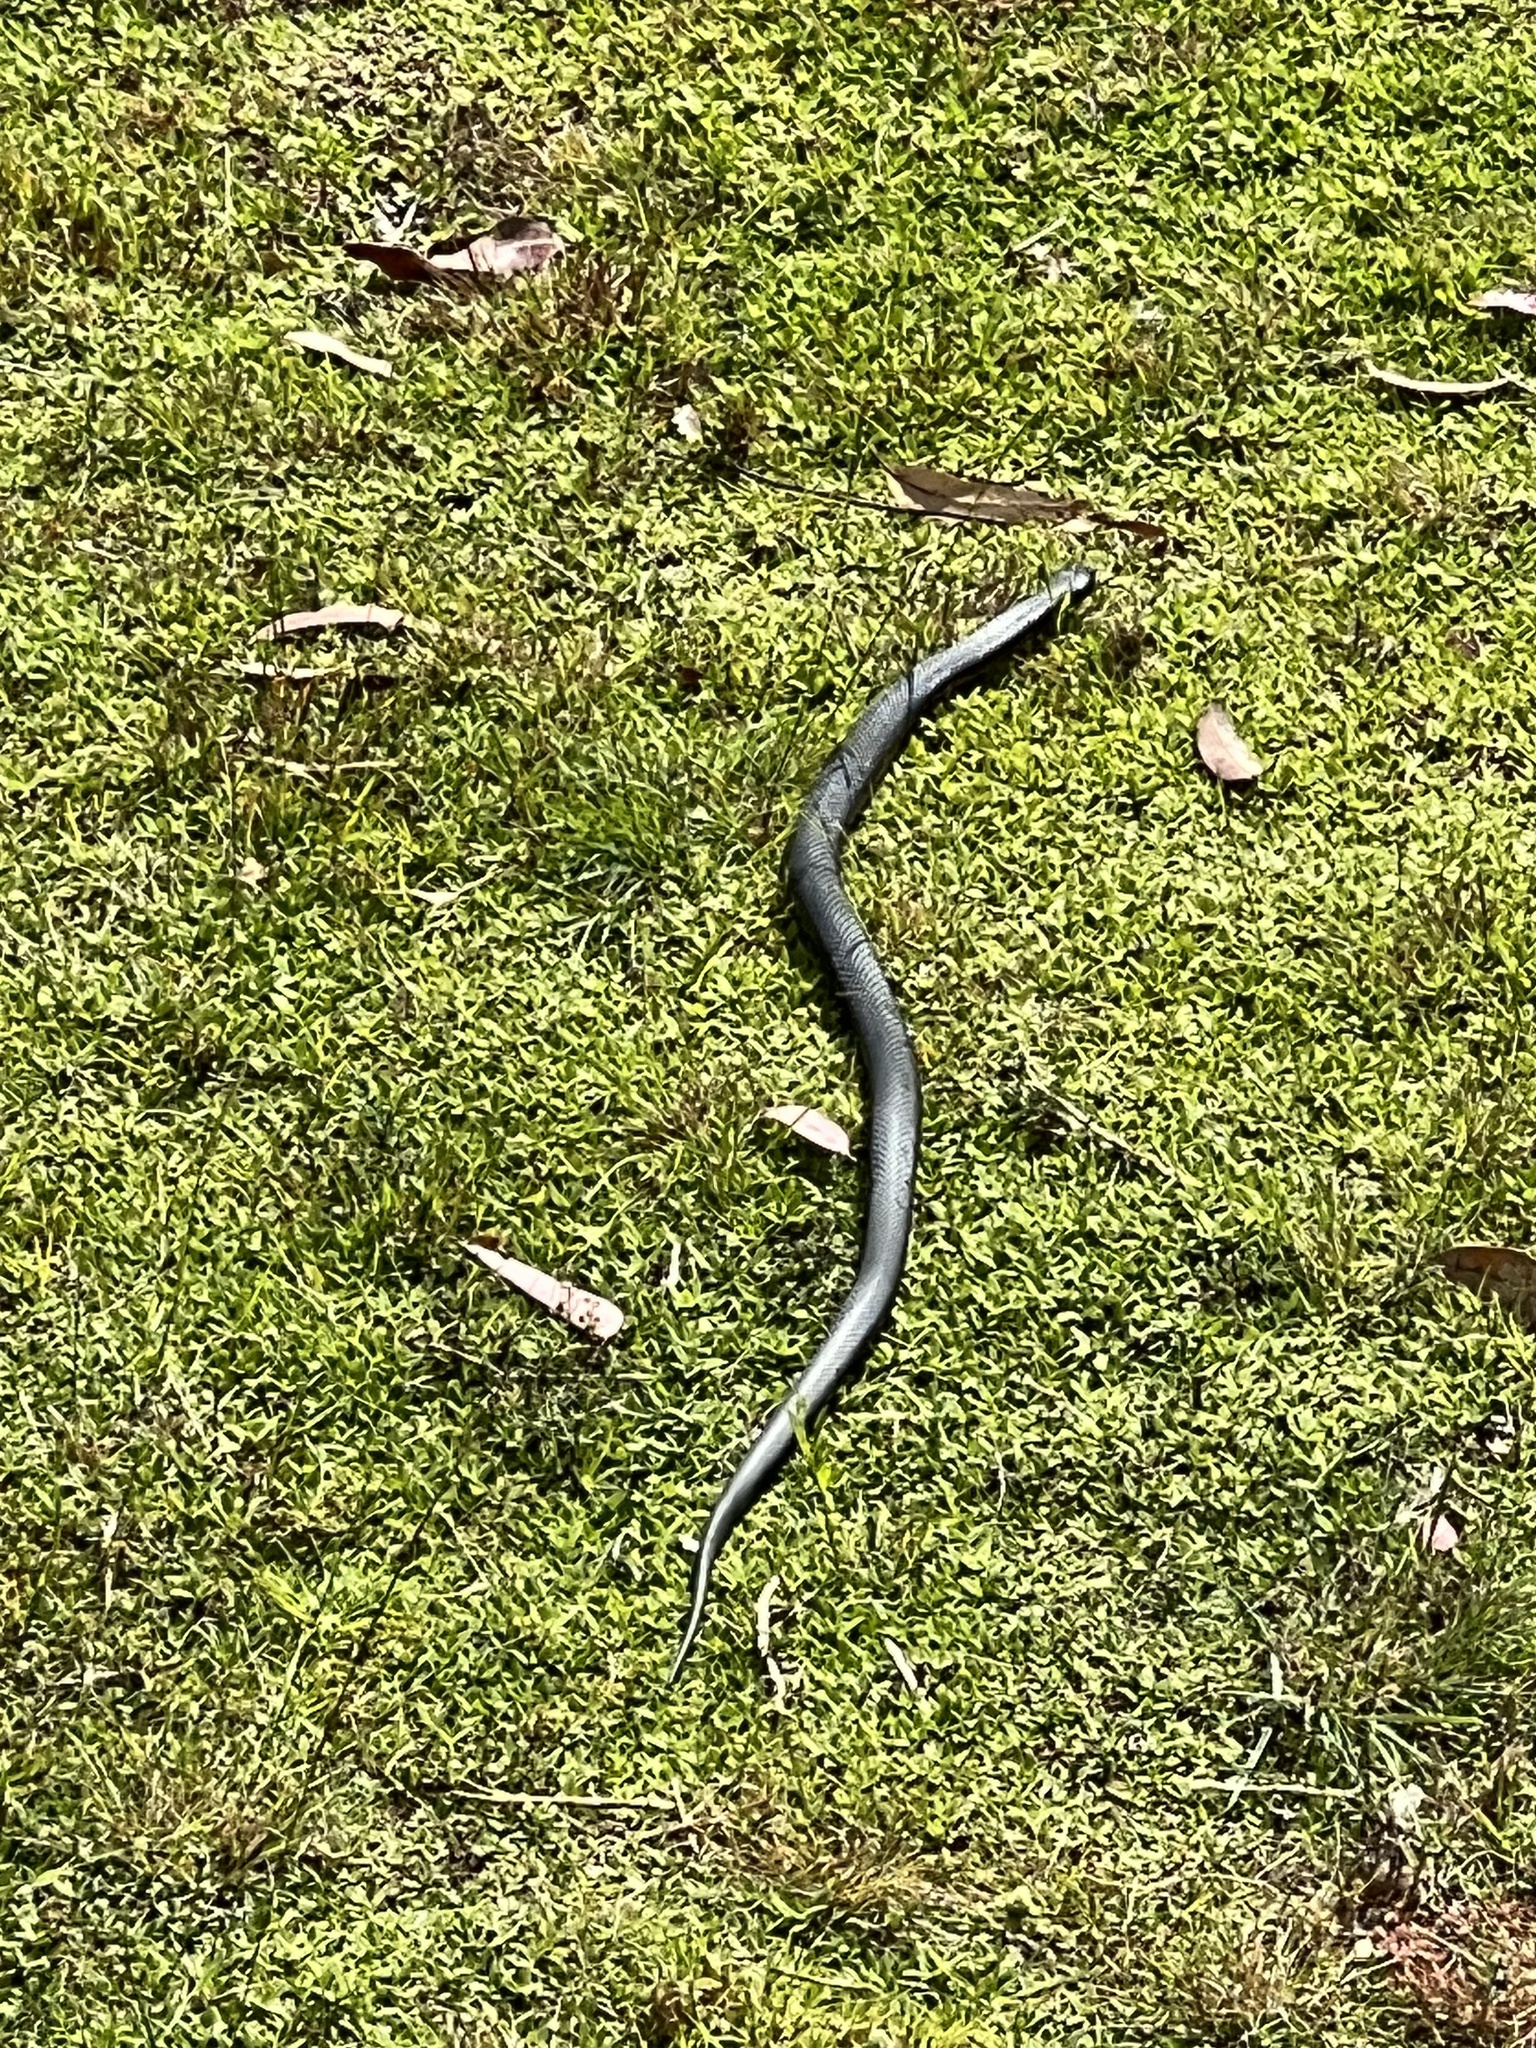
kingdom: Animalia
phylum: Chordata
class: Squamata
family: Elapidae
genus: Pseudechis
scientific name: Pseudechis porphyriacus
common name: Australian black snake
